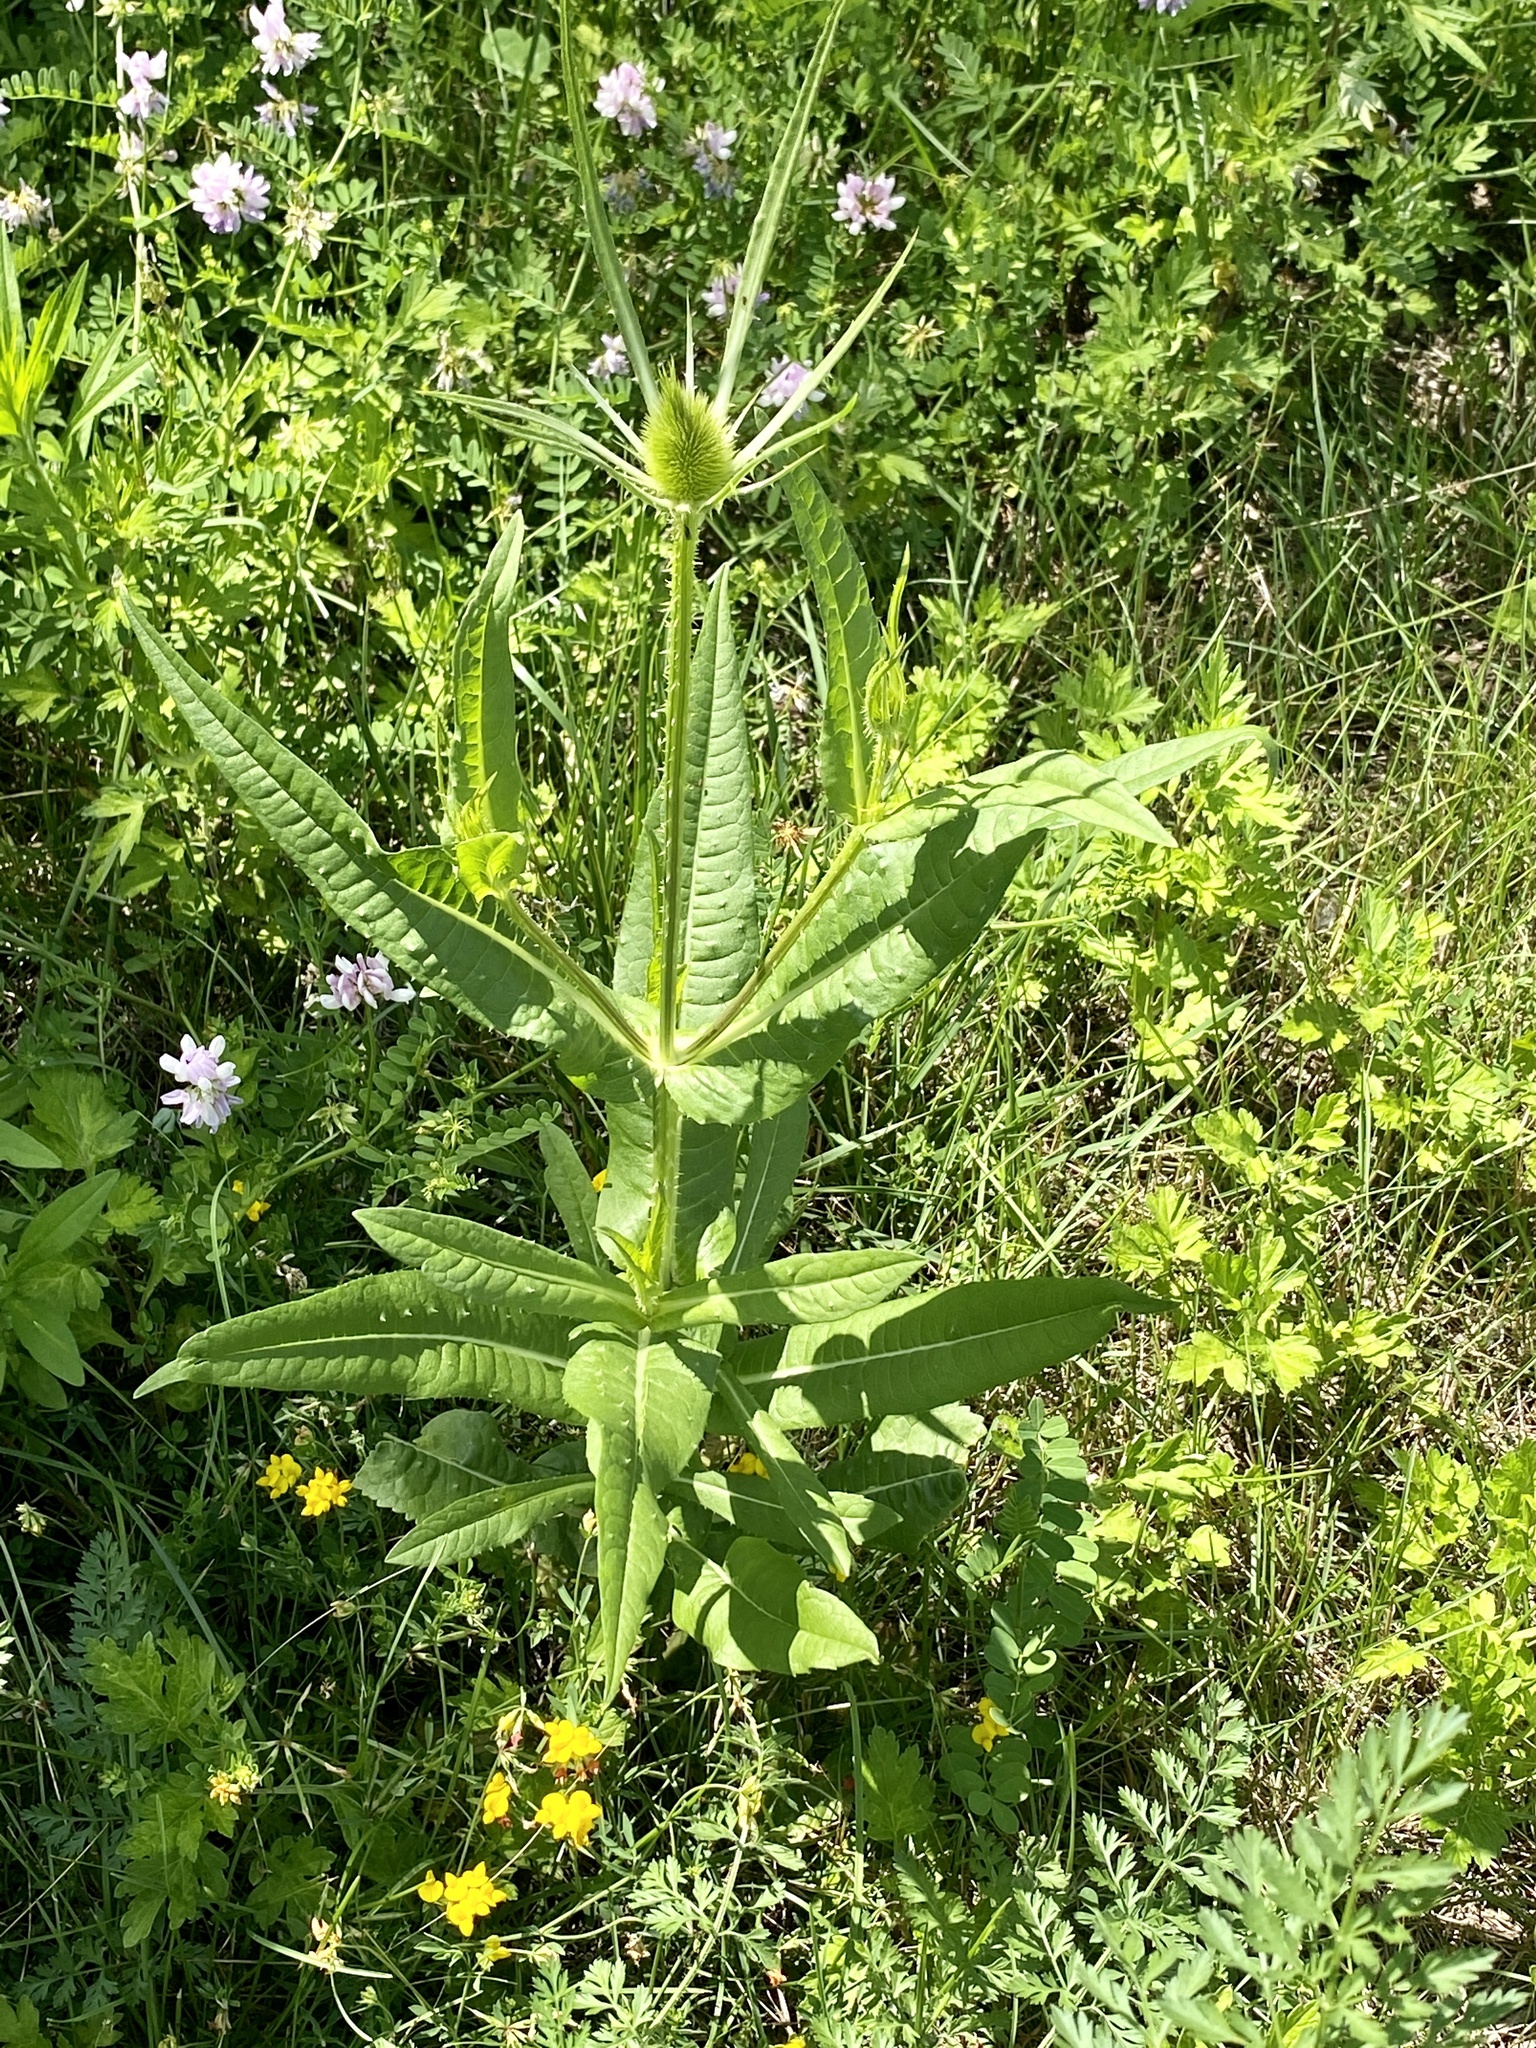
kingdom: Plantae
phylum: Tracheophyta
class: Magnoliopsida
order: Dipsacales
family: Caprifoliaceae
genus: Dipsacus
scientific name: Dipsacus fullonum
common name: Teasel
